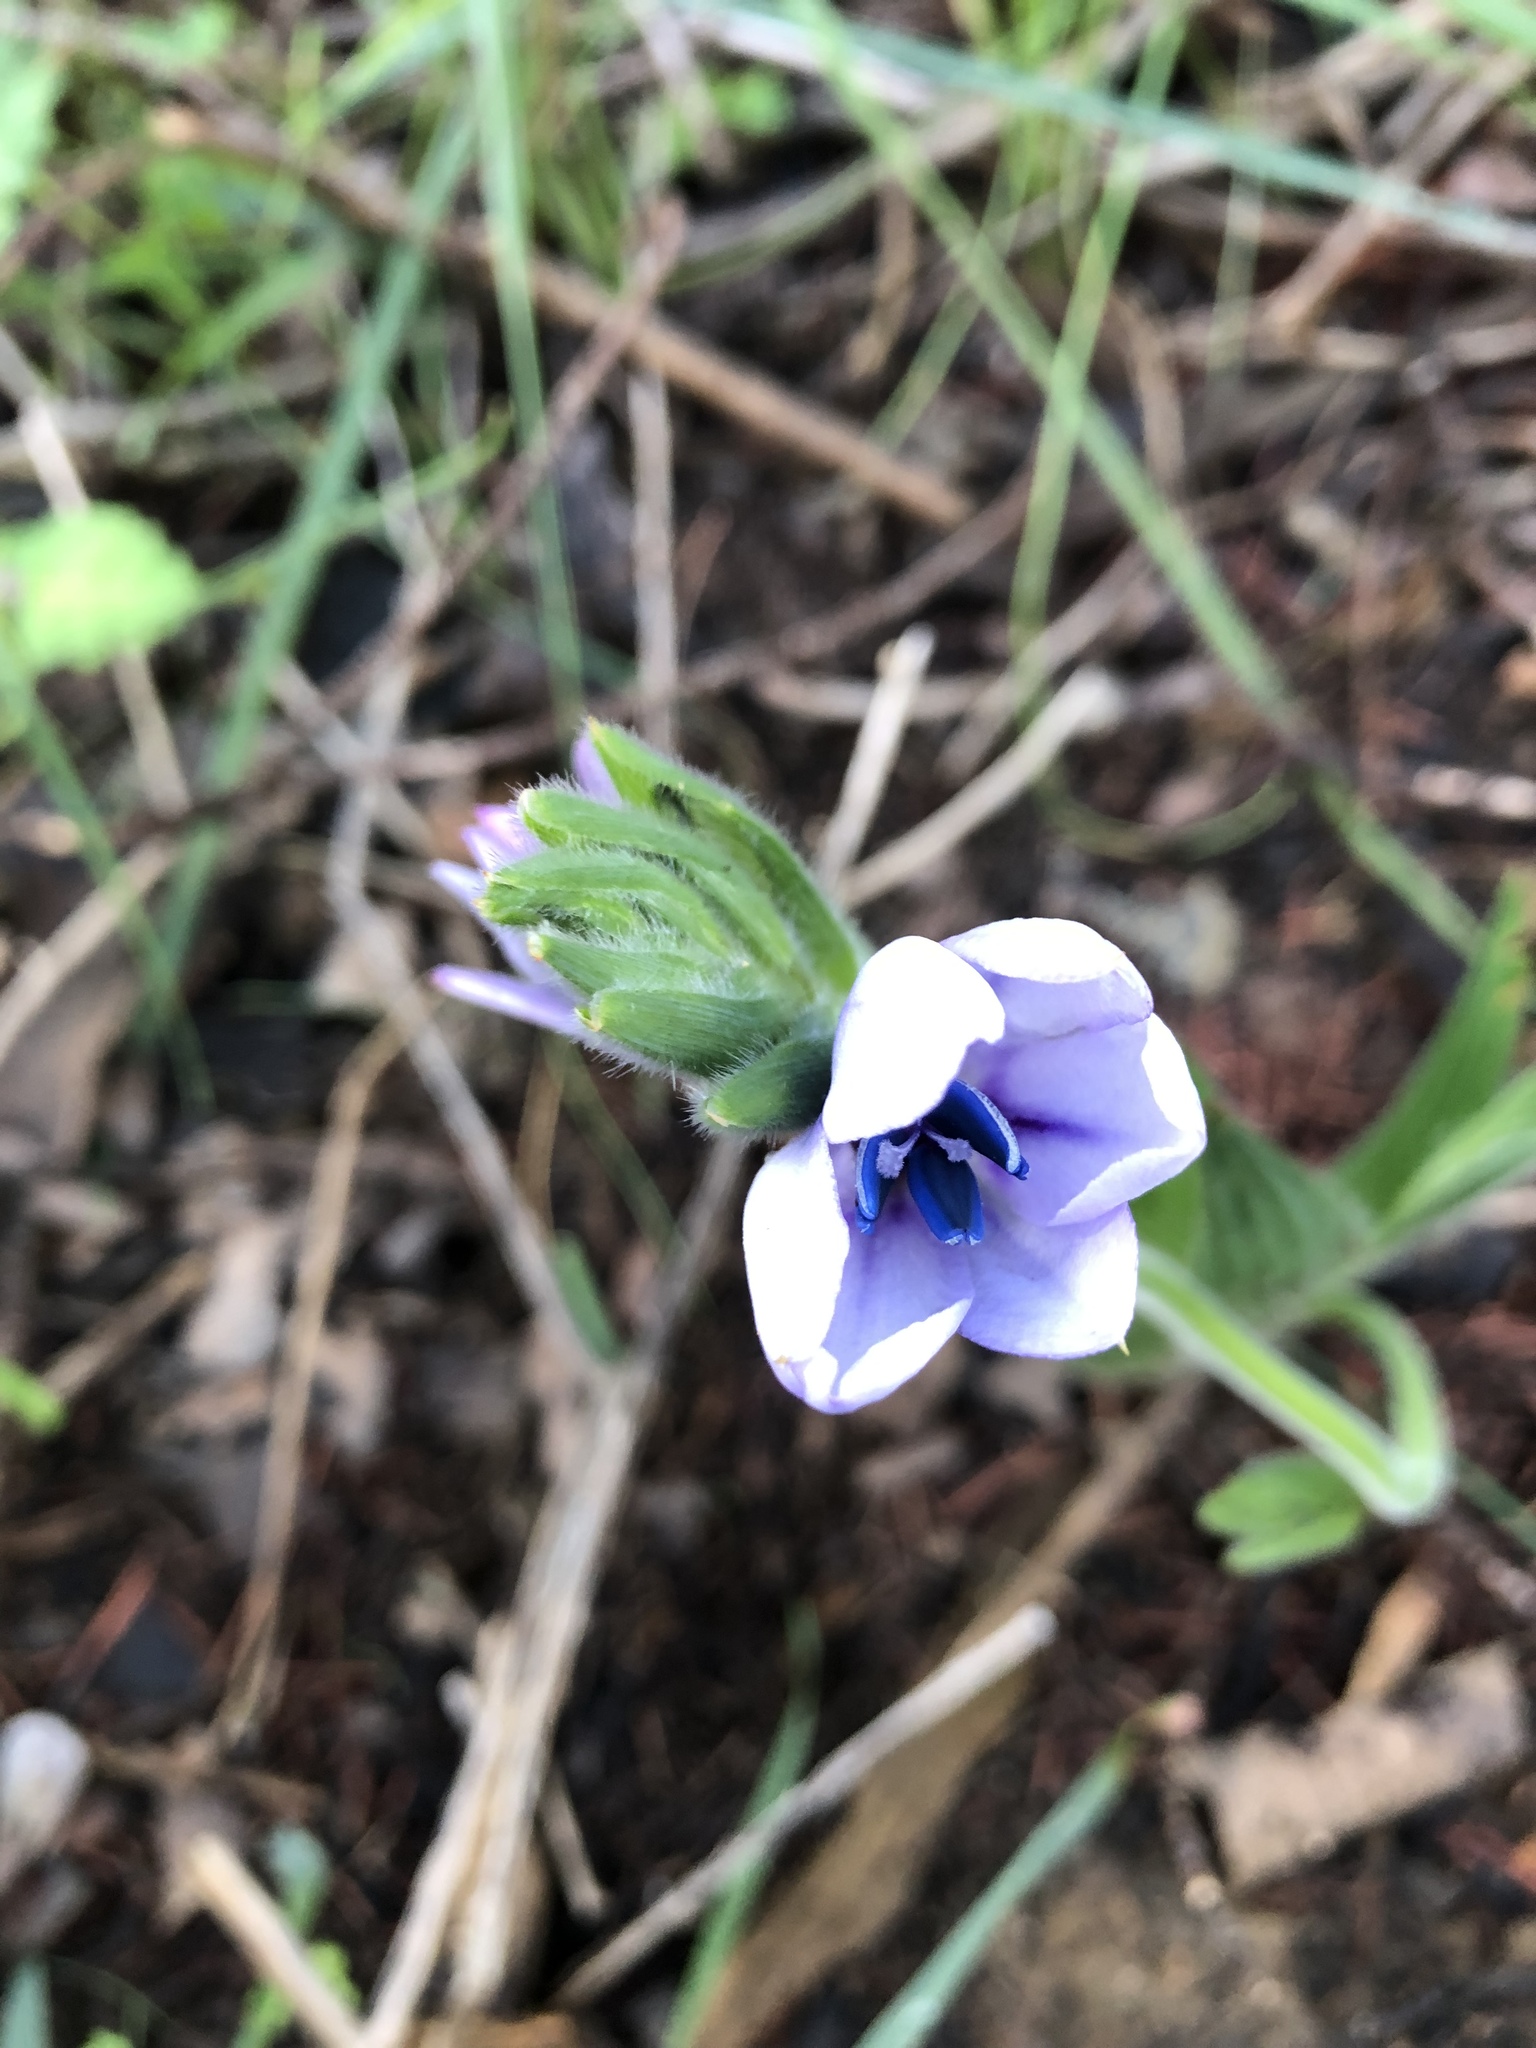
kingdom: Plantae
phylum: Tracheophyta
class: Liliopsida
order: Asparagales
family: Iridaceae
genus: Babiana
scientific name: Babiana villosula
